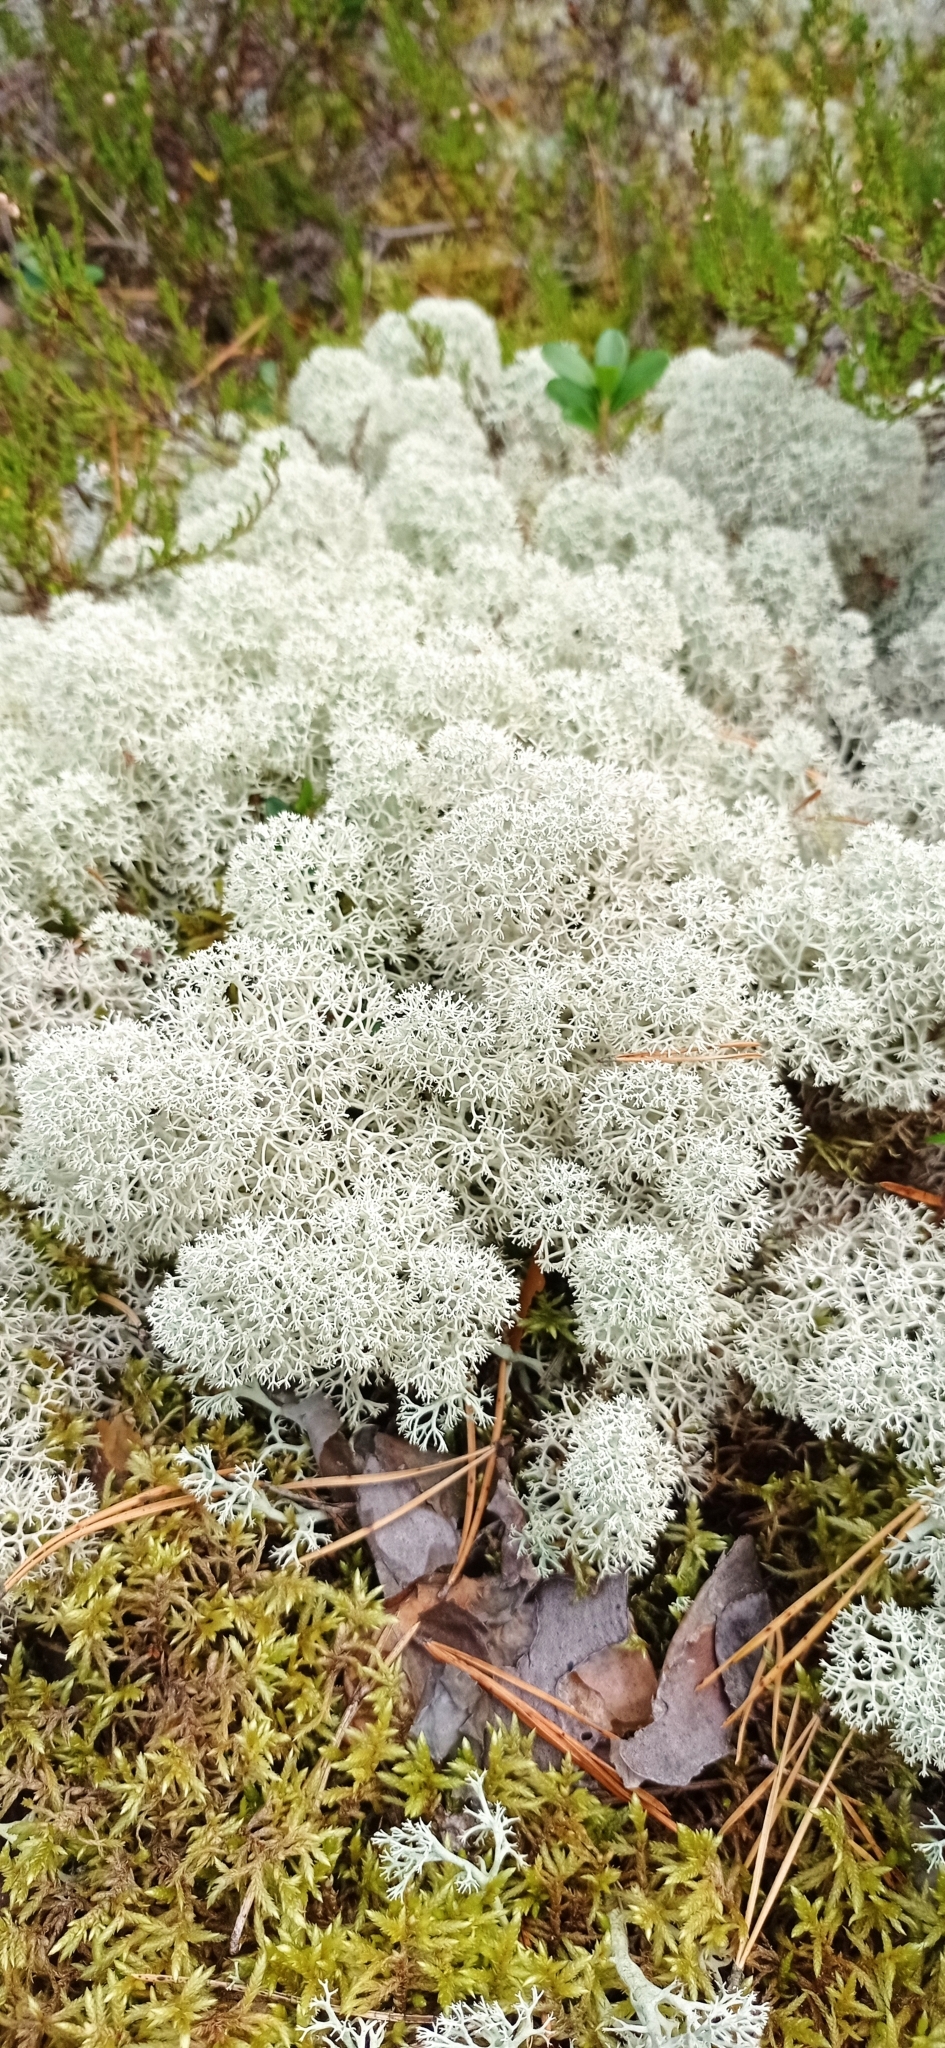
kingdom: Fungi
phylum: Ascomycota
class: Lecanoromycetes
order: Lecanorales
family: Cladoniaceae
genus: Cladonia
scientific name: Cladonia stellaris
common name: Star-tipped reindeer lichen
